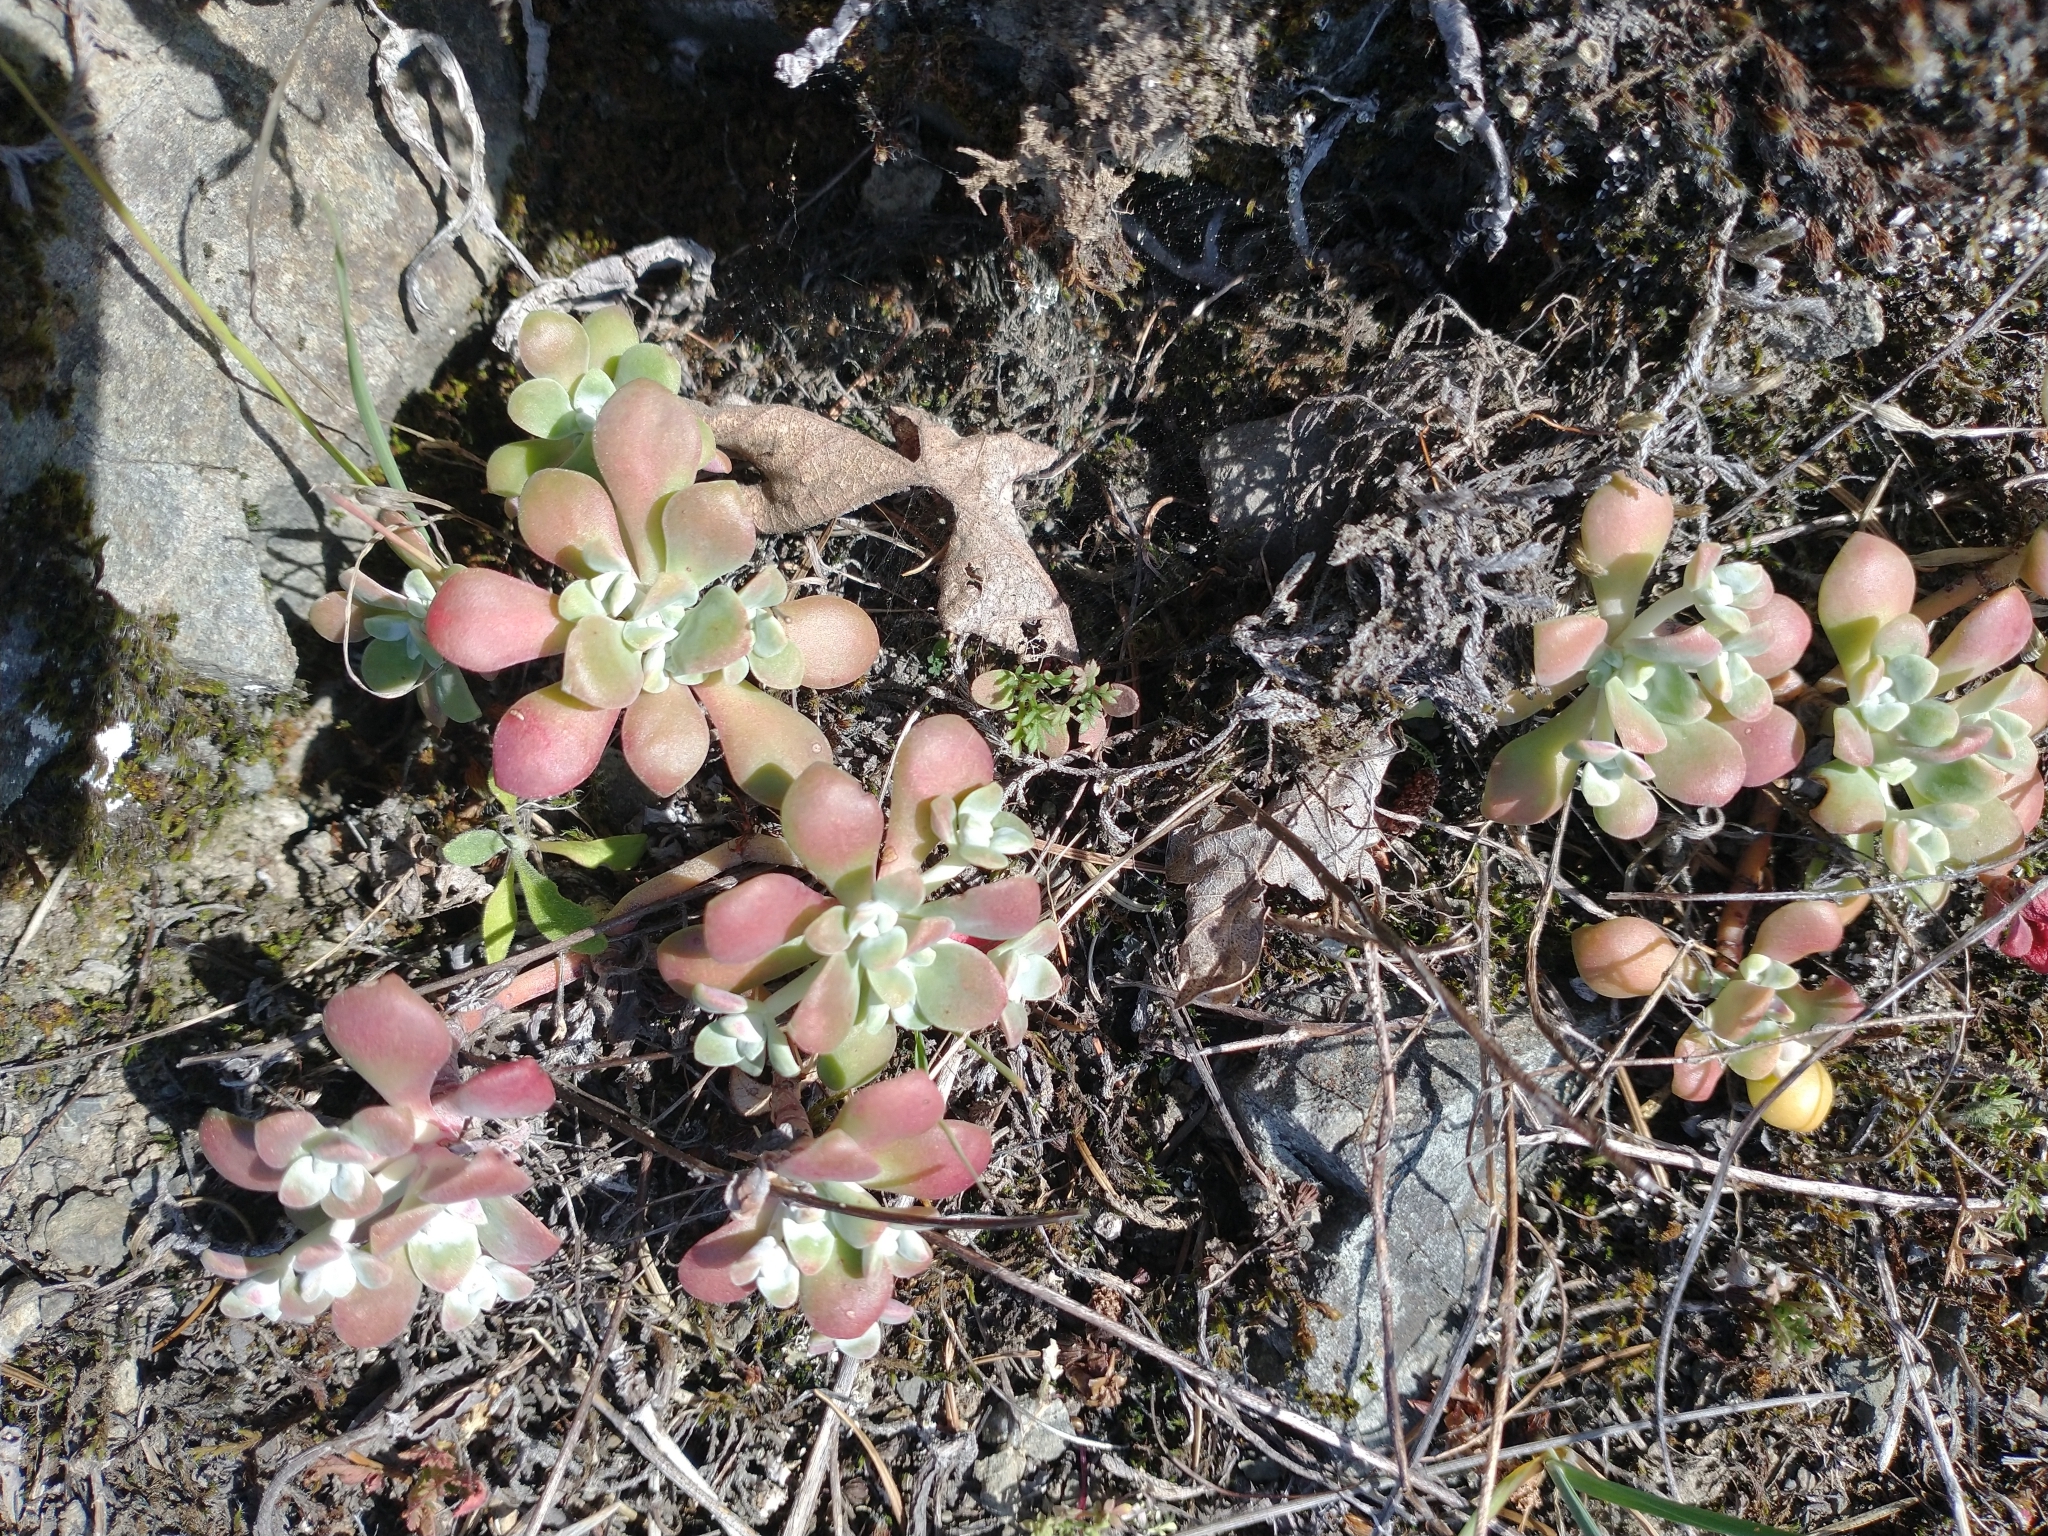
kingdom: Plantae
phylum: Tracheophyta
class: Magnoliopsida
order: Saxifragales
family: Crassulaceae
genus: Sedum
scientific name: Sedum spathulifolium
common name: Colorado stonecrop
